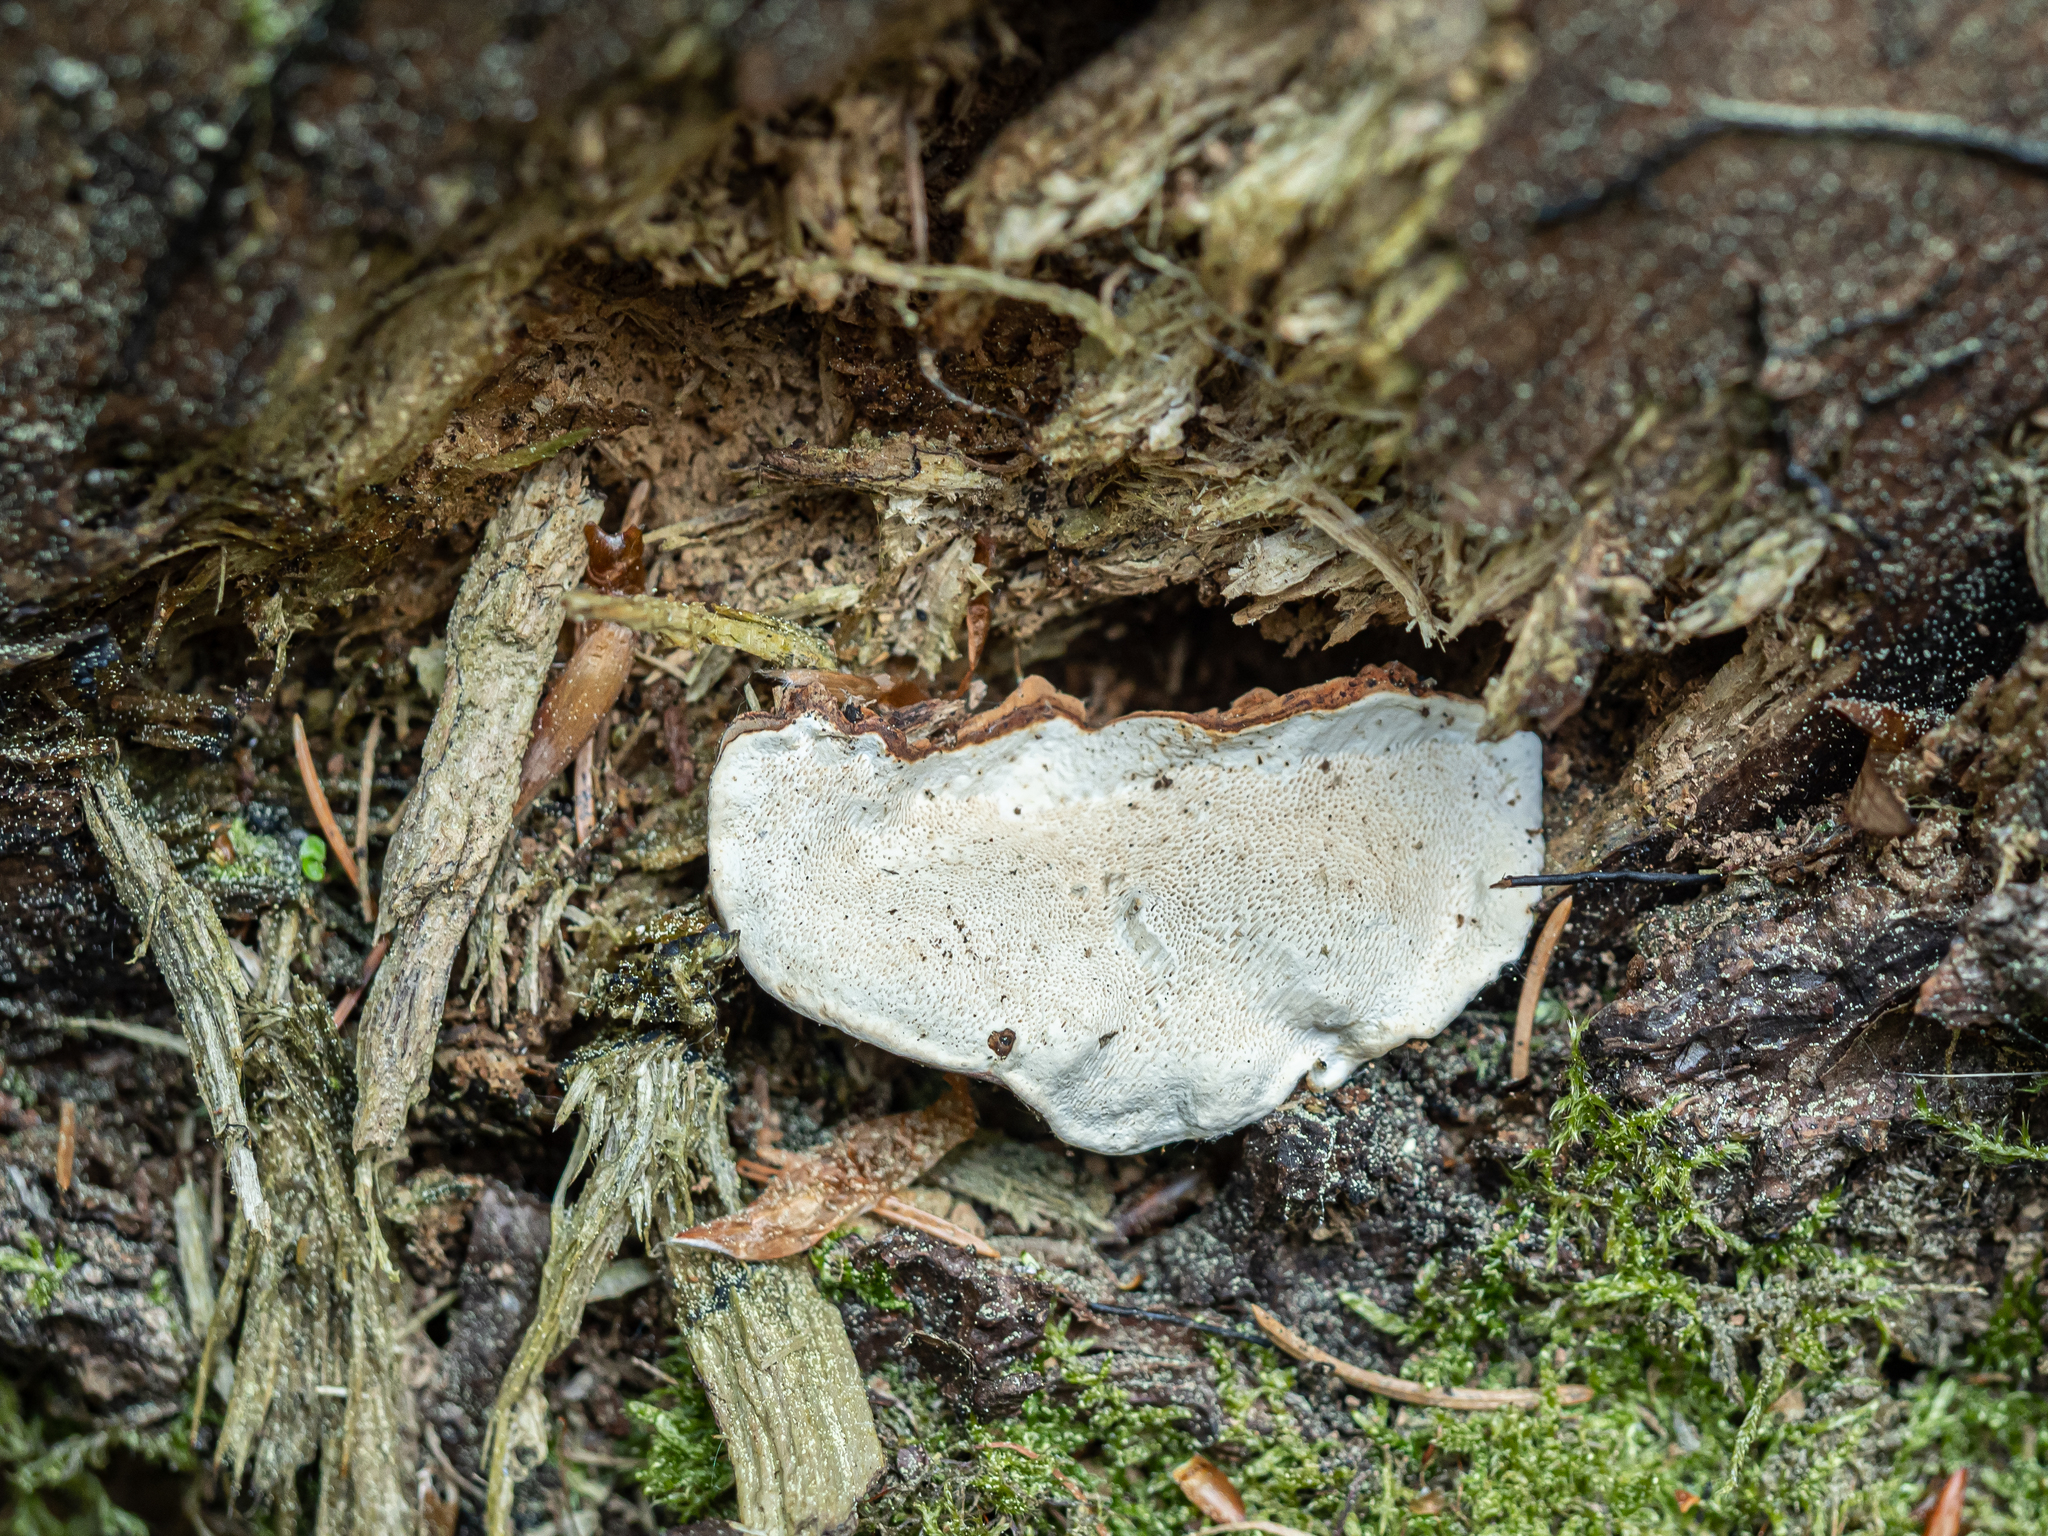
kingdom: Fungi
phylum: Basidiomycota
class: Agaricomycetes
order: Russulales
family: Bondarzewiaceae
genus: Heterobasidion
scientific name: Heterobasidion annosum
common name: Root rot
